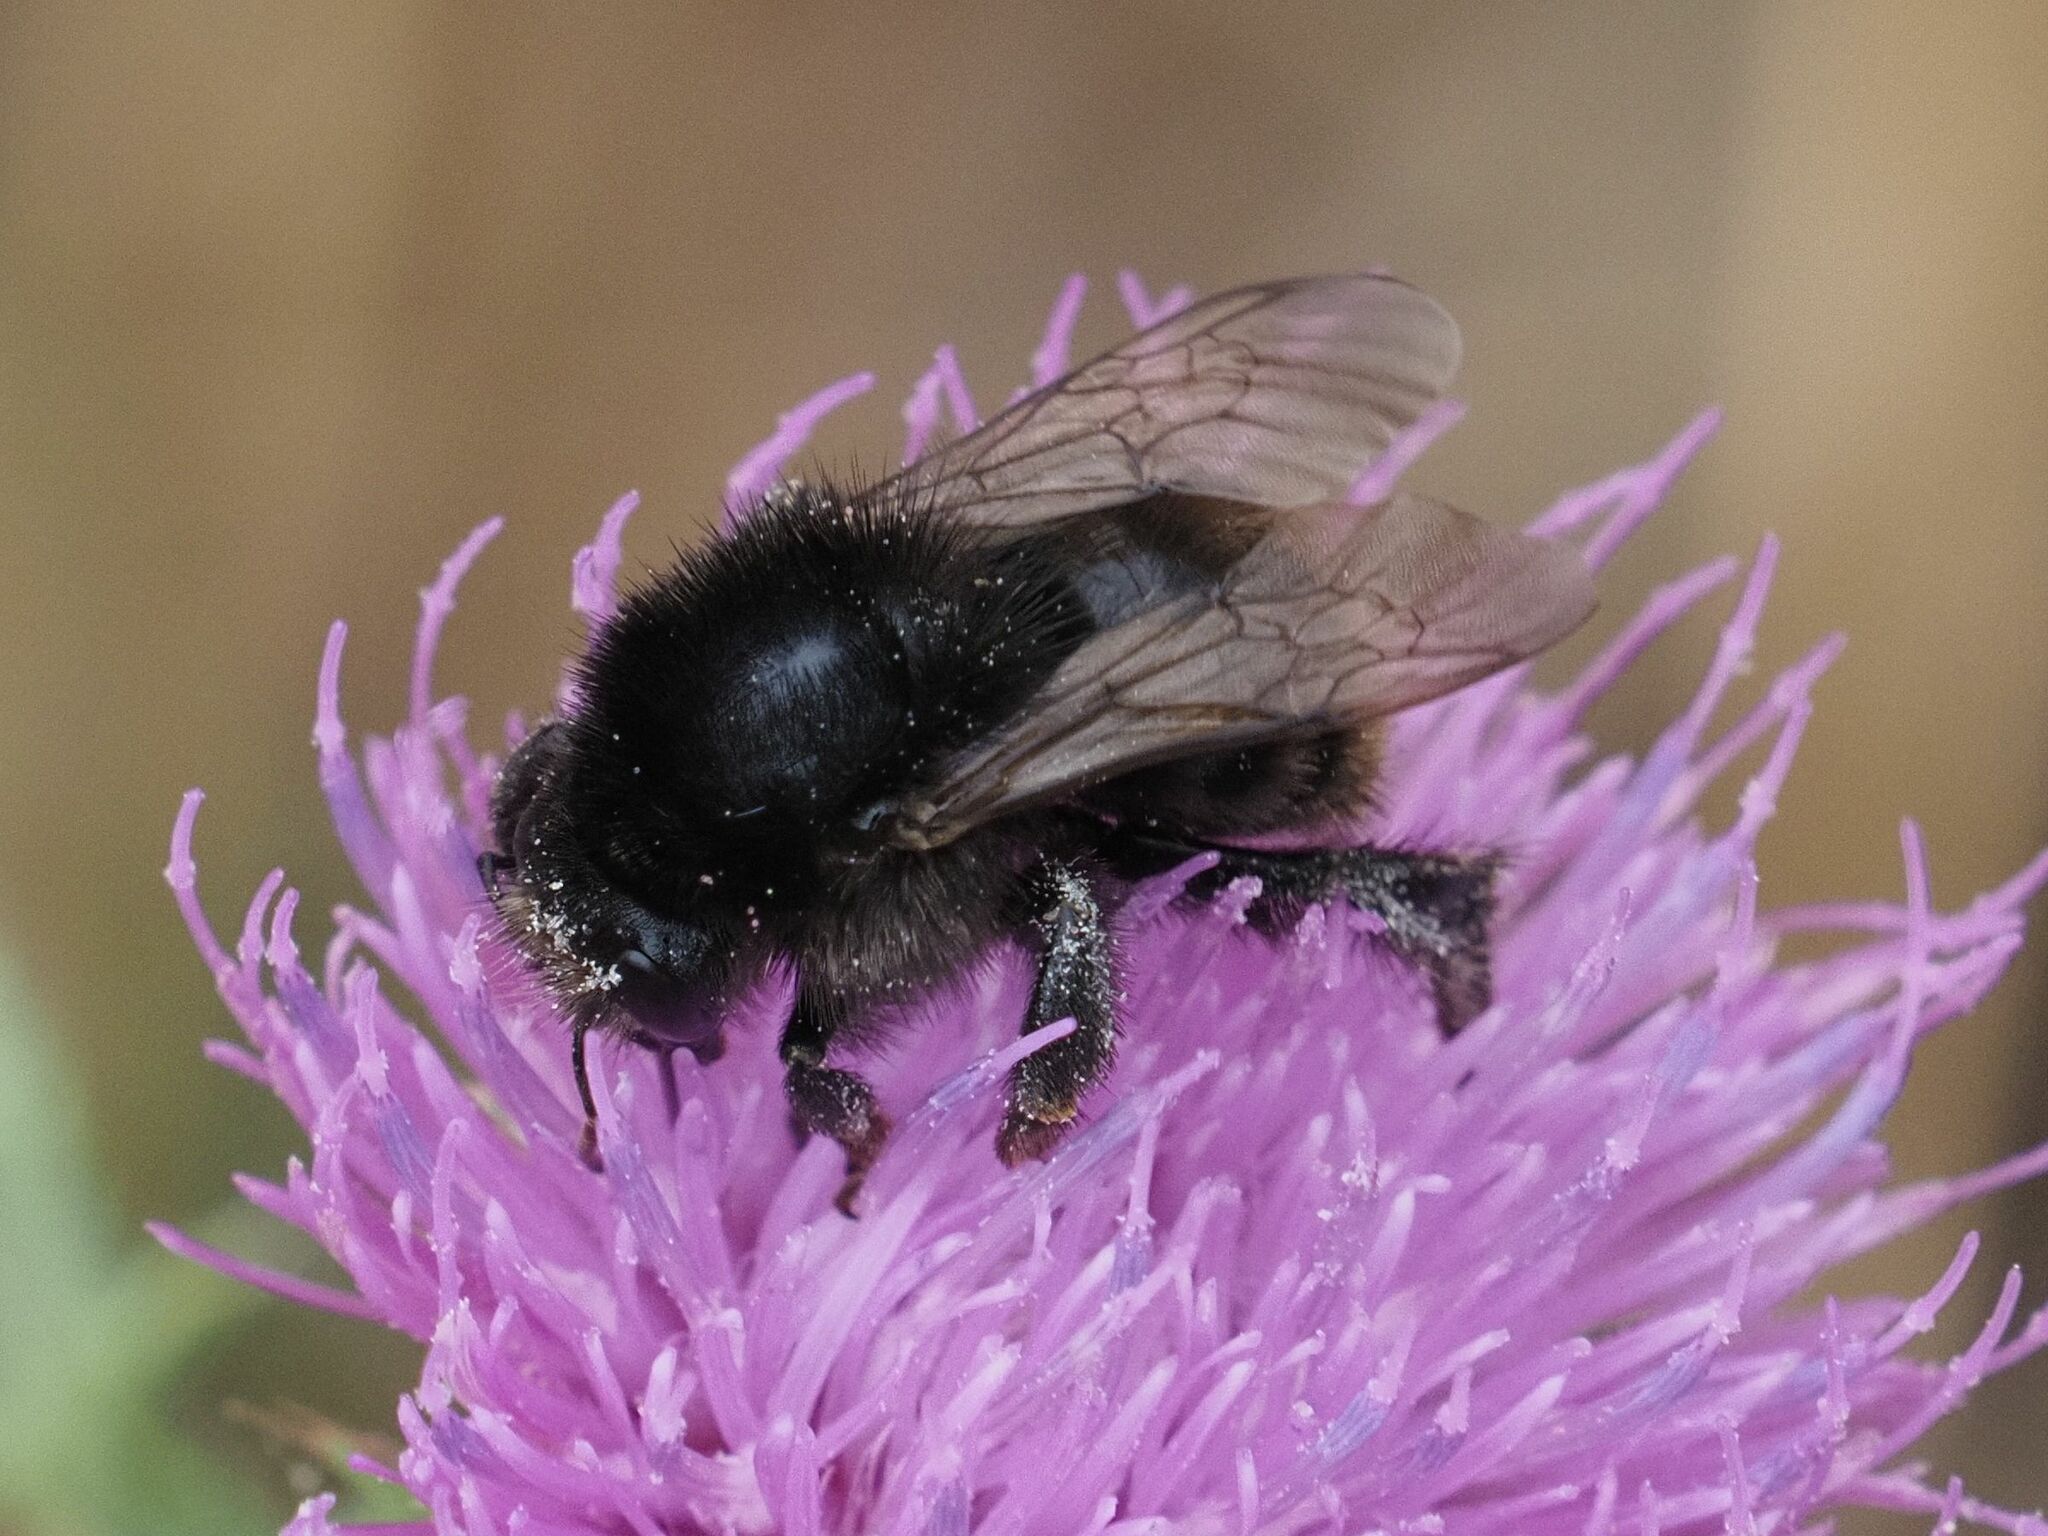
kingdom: Animalia
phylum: Arthropoda
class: Insecta
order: Hymenoptera
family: Apidae
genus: Bombus
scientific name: Bombus humilis
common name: Brown-banded carder-bee
